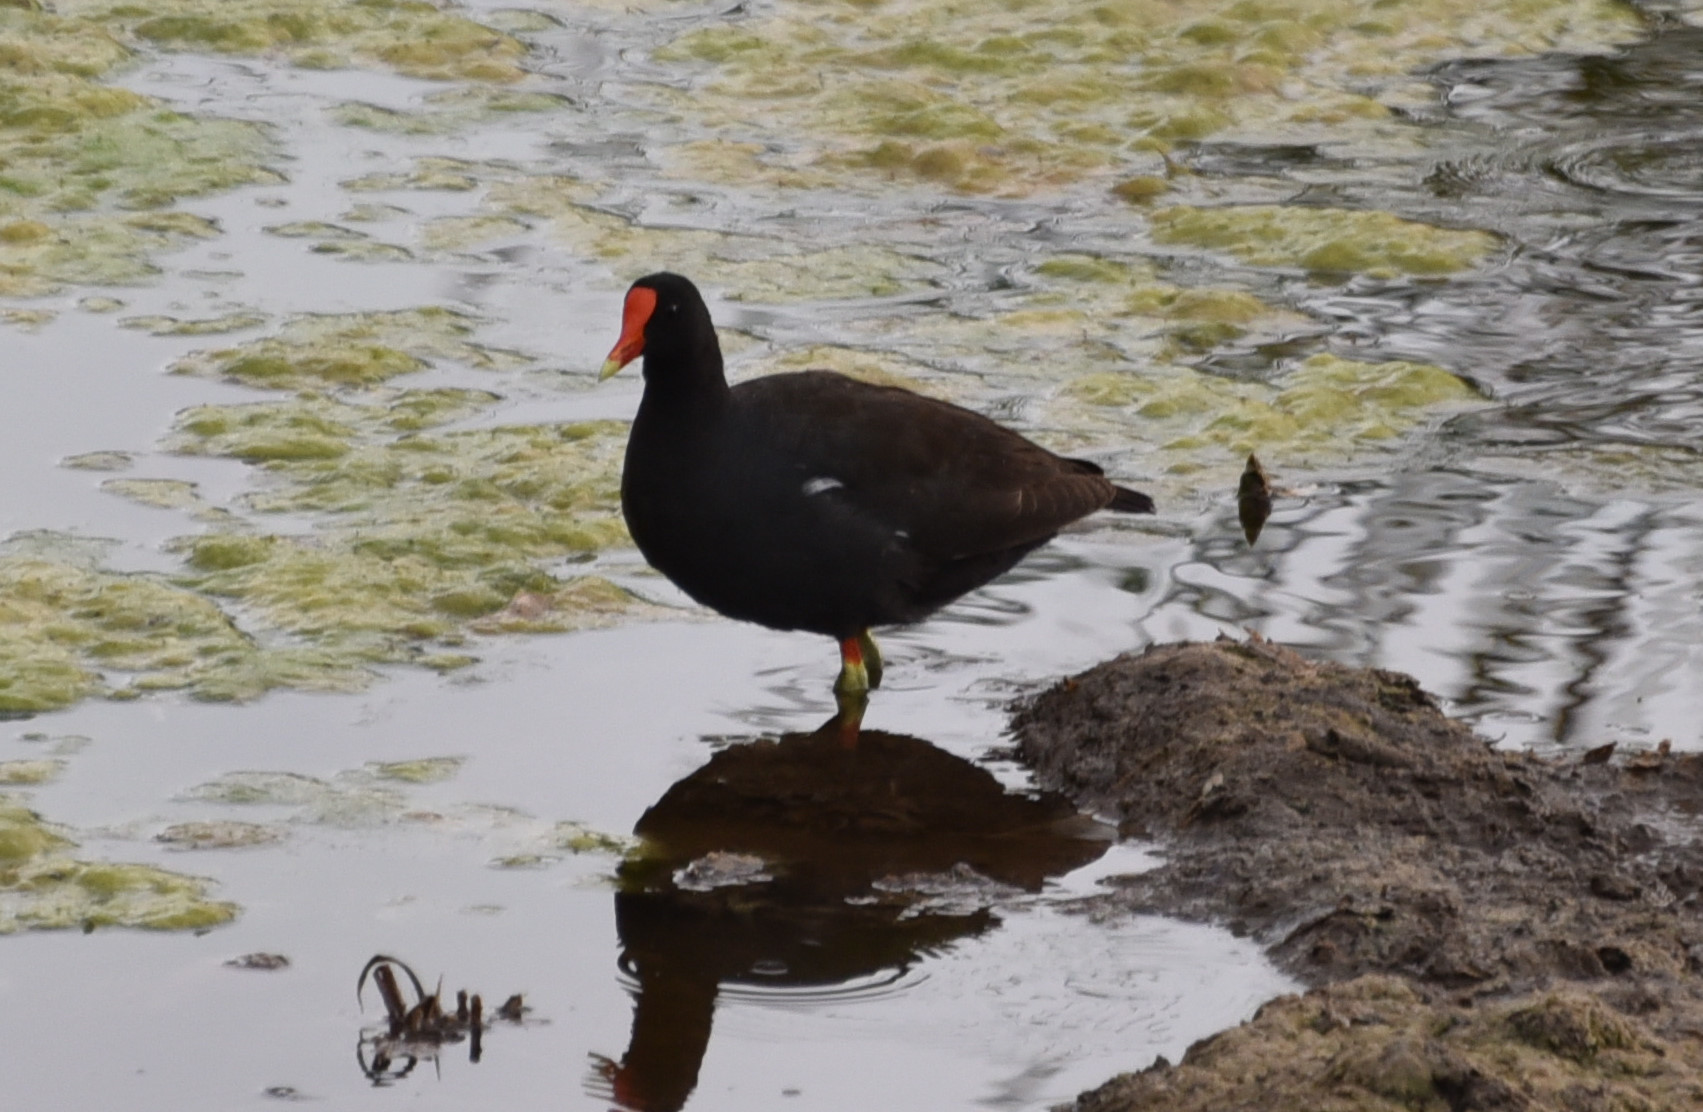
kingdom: Animalia
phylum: Chordata
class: Aves
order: Gruiformes
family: Rallidae
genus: Gallinula
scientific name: Gallinula chloropus
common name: Common moorhen
